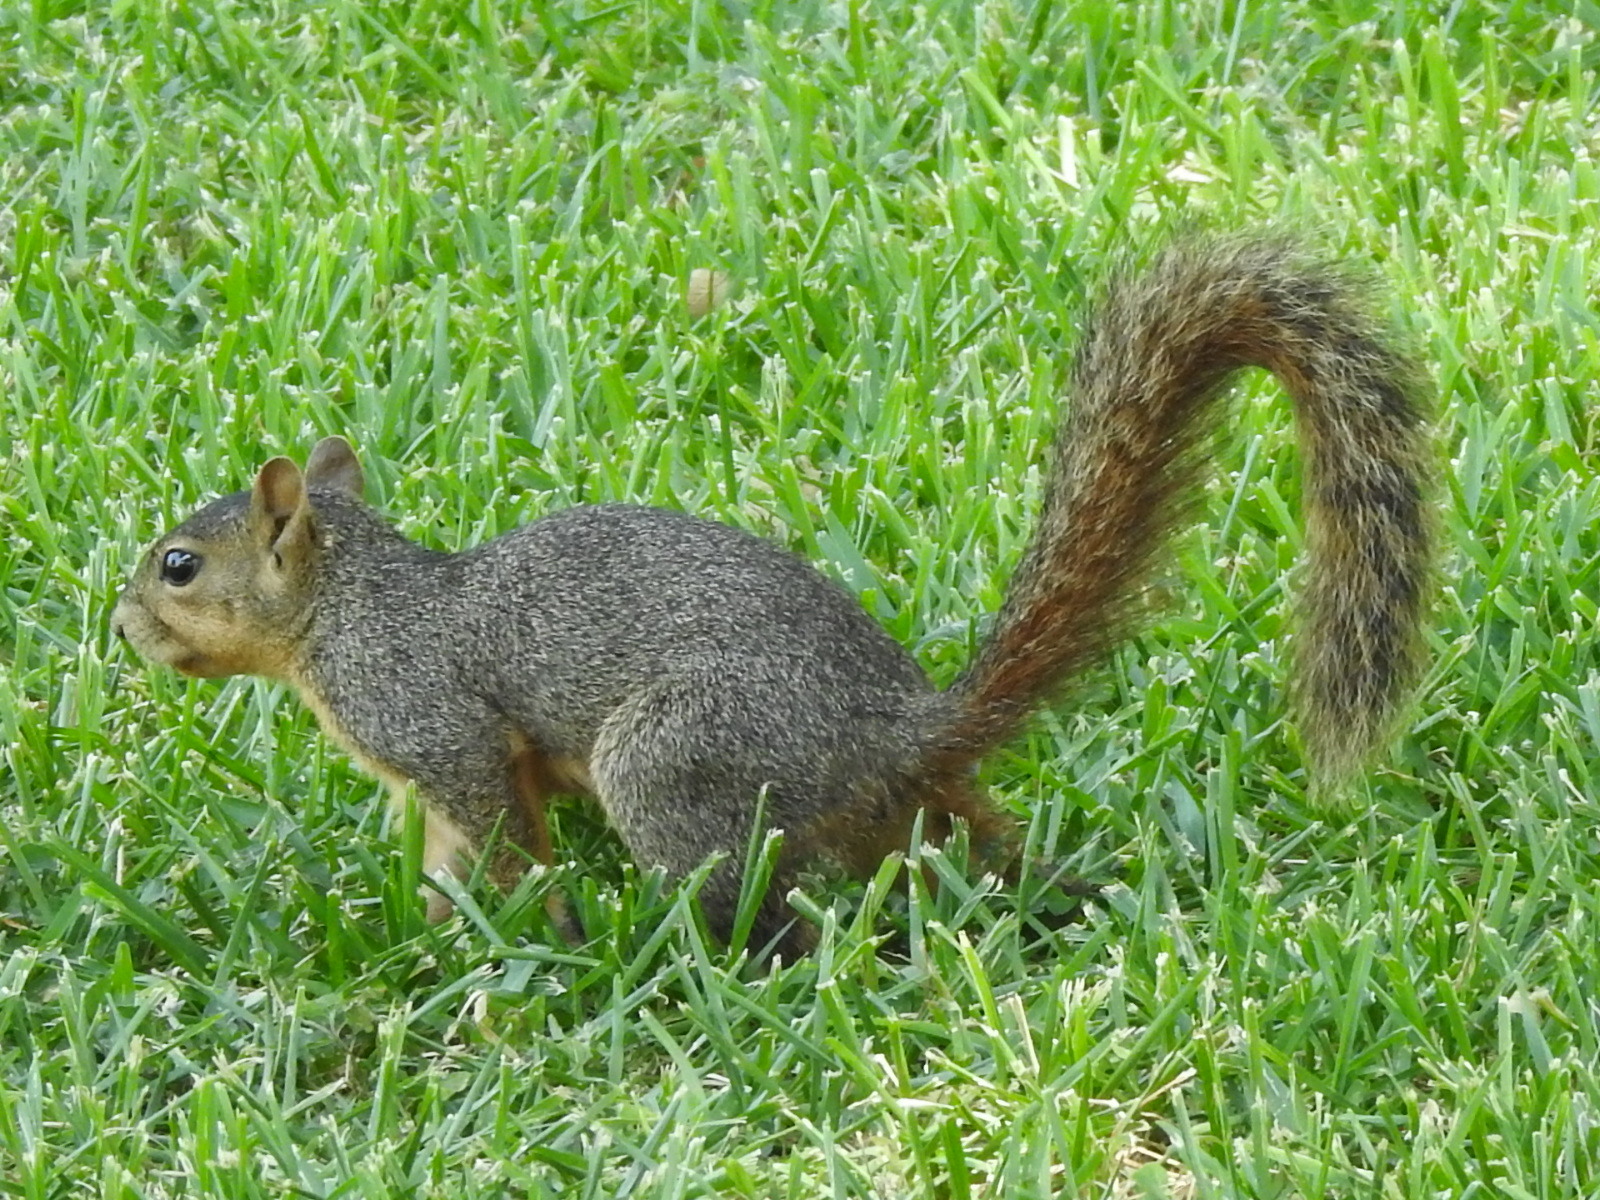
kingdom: Animalia
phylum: Chordata
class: Mammalia
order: Rodentia
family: Sciuridae
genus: Sciurus
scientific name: Sciurus niger
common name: Fox squirrel
